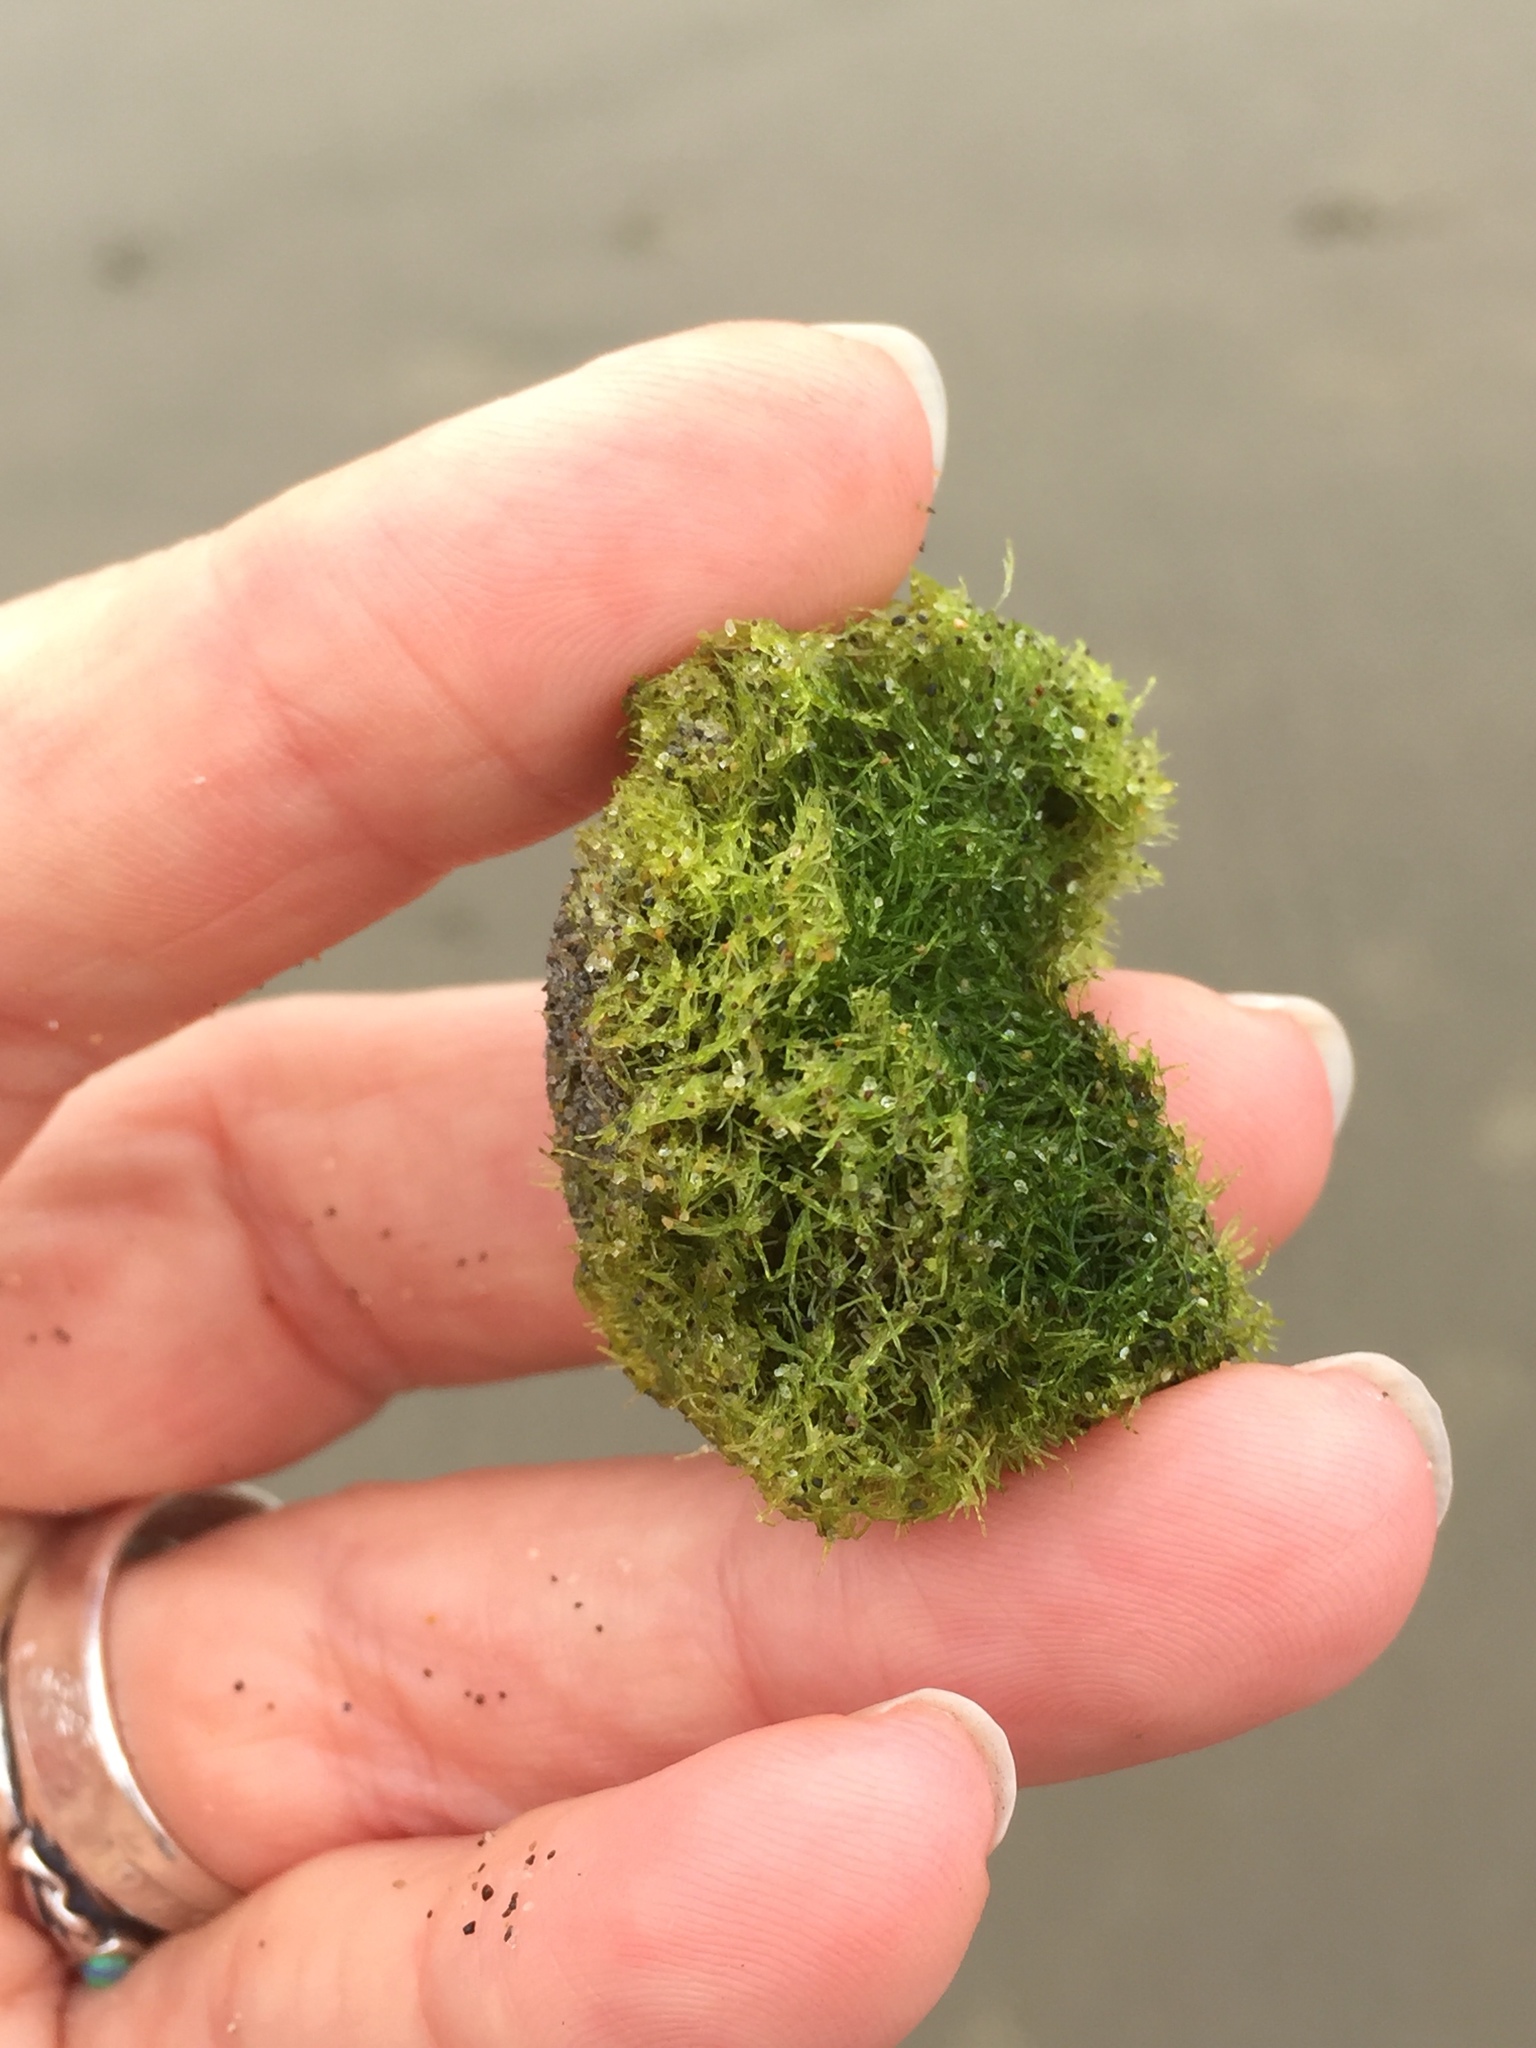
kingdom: Plantae
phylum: Chlorophyta
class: Ulvophyceae
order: Cladophorales
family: Cladophoraceae
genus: Cladophora
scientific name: Cladophora columbiana
